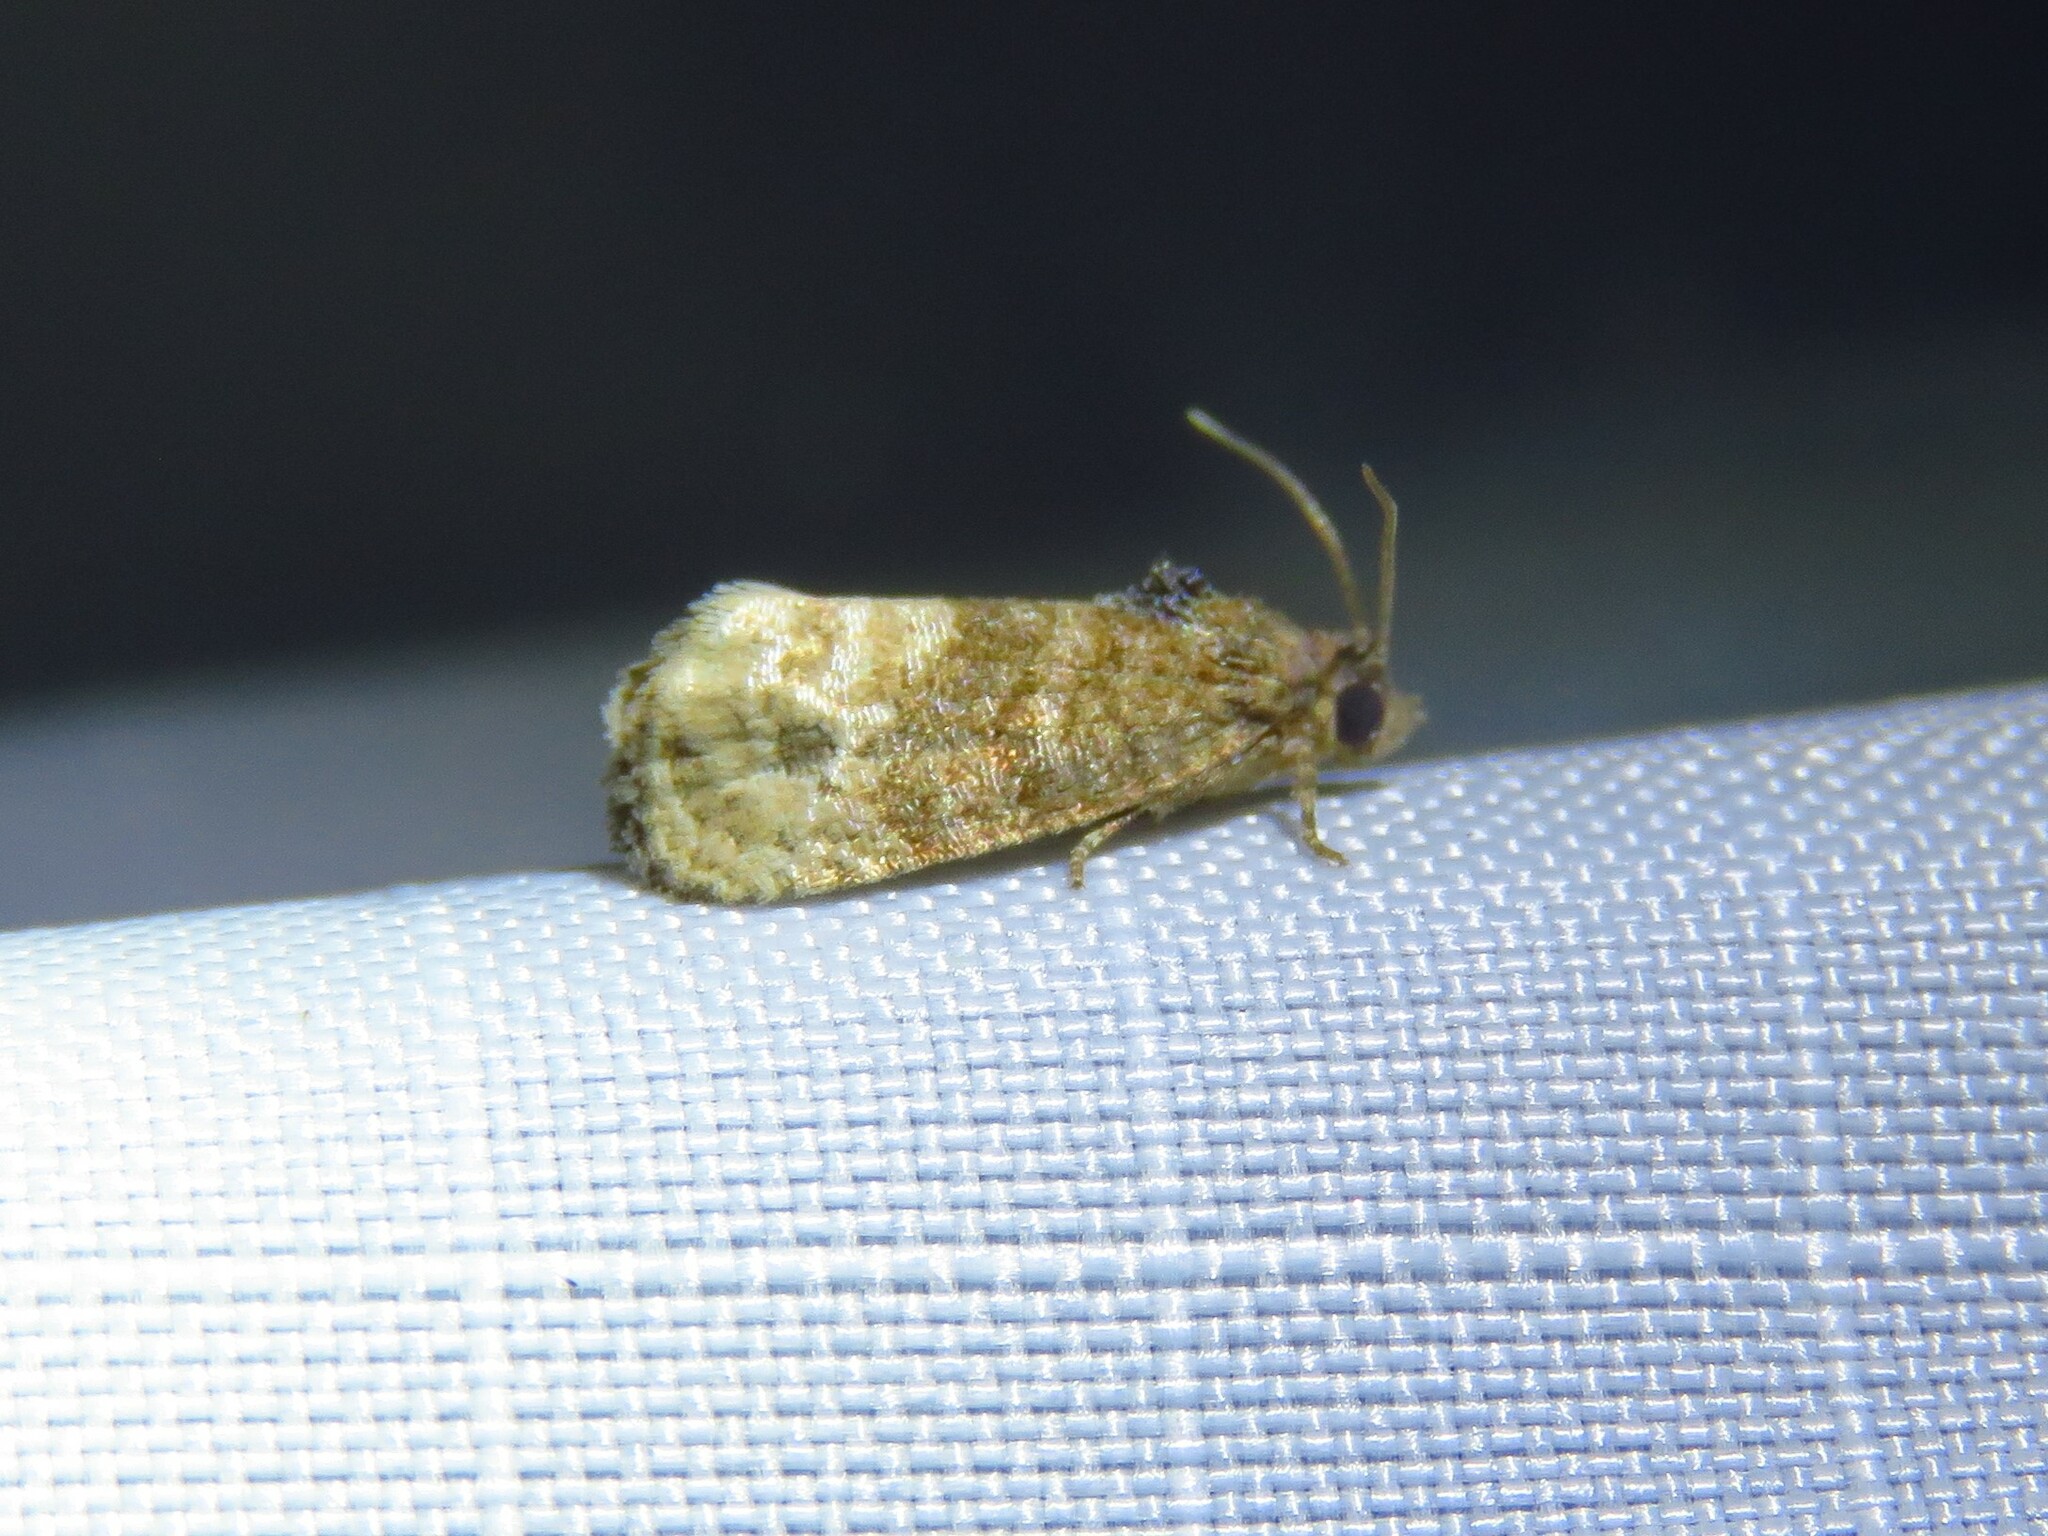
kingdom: Animalia
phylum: Arthropoda
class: Insecta
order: Lepidoptera
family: Tortricidae
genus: Ecdytolopha
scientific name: Ecdytolopha mana
